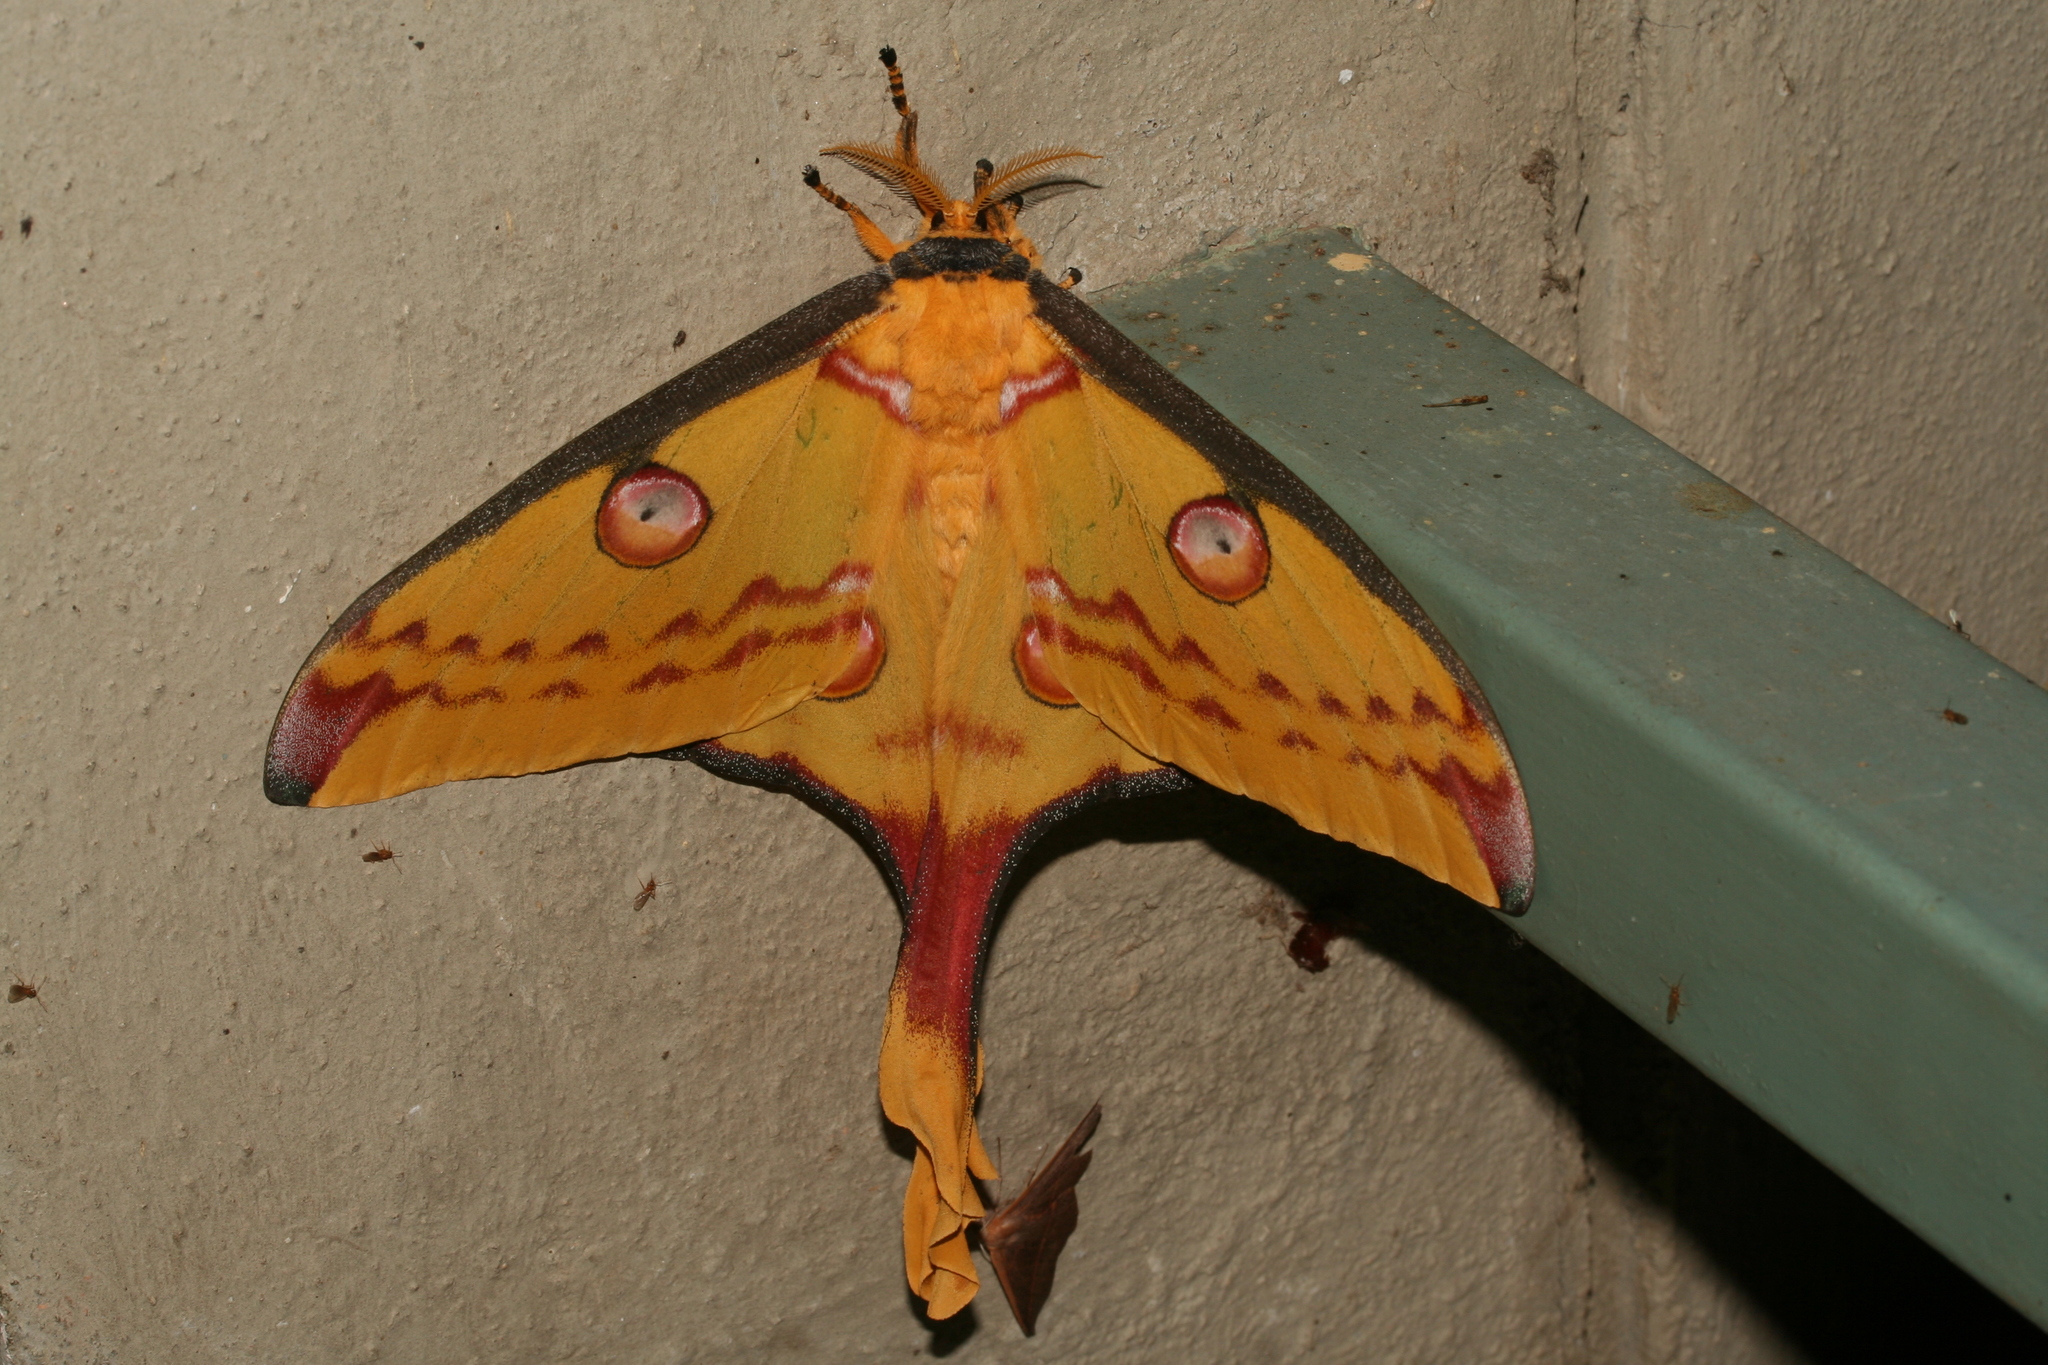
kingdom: Animalia
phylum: Arthropoda
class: Insecta
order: Lepidoptera
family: Saturniidae
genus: Argema
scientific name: Argema mittrei
